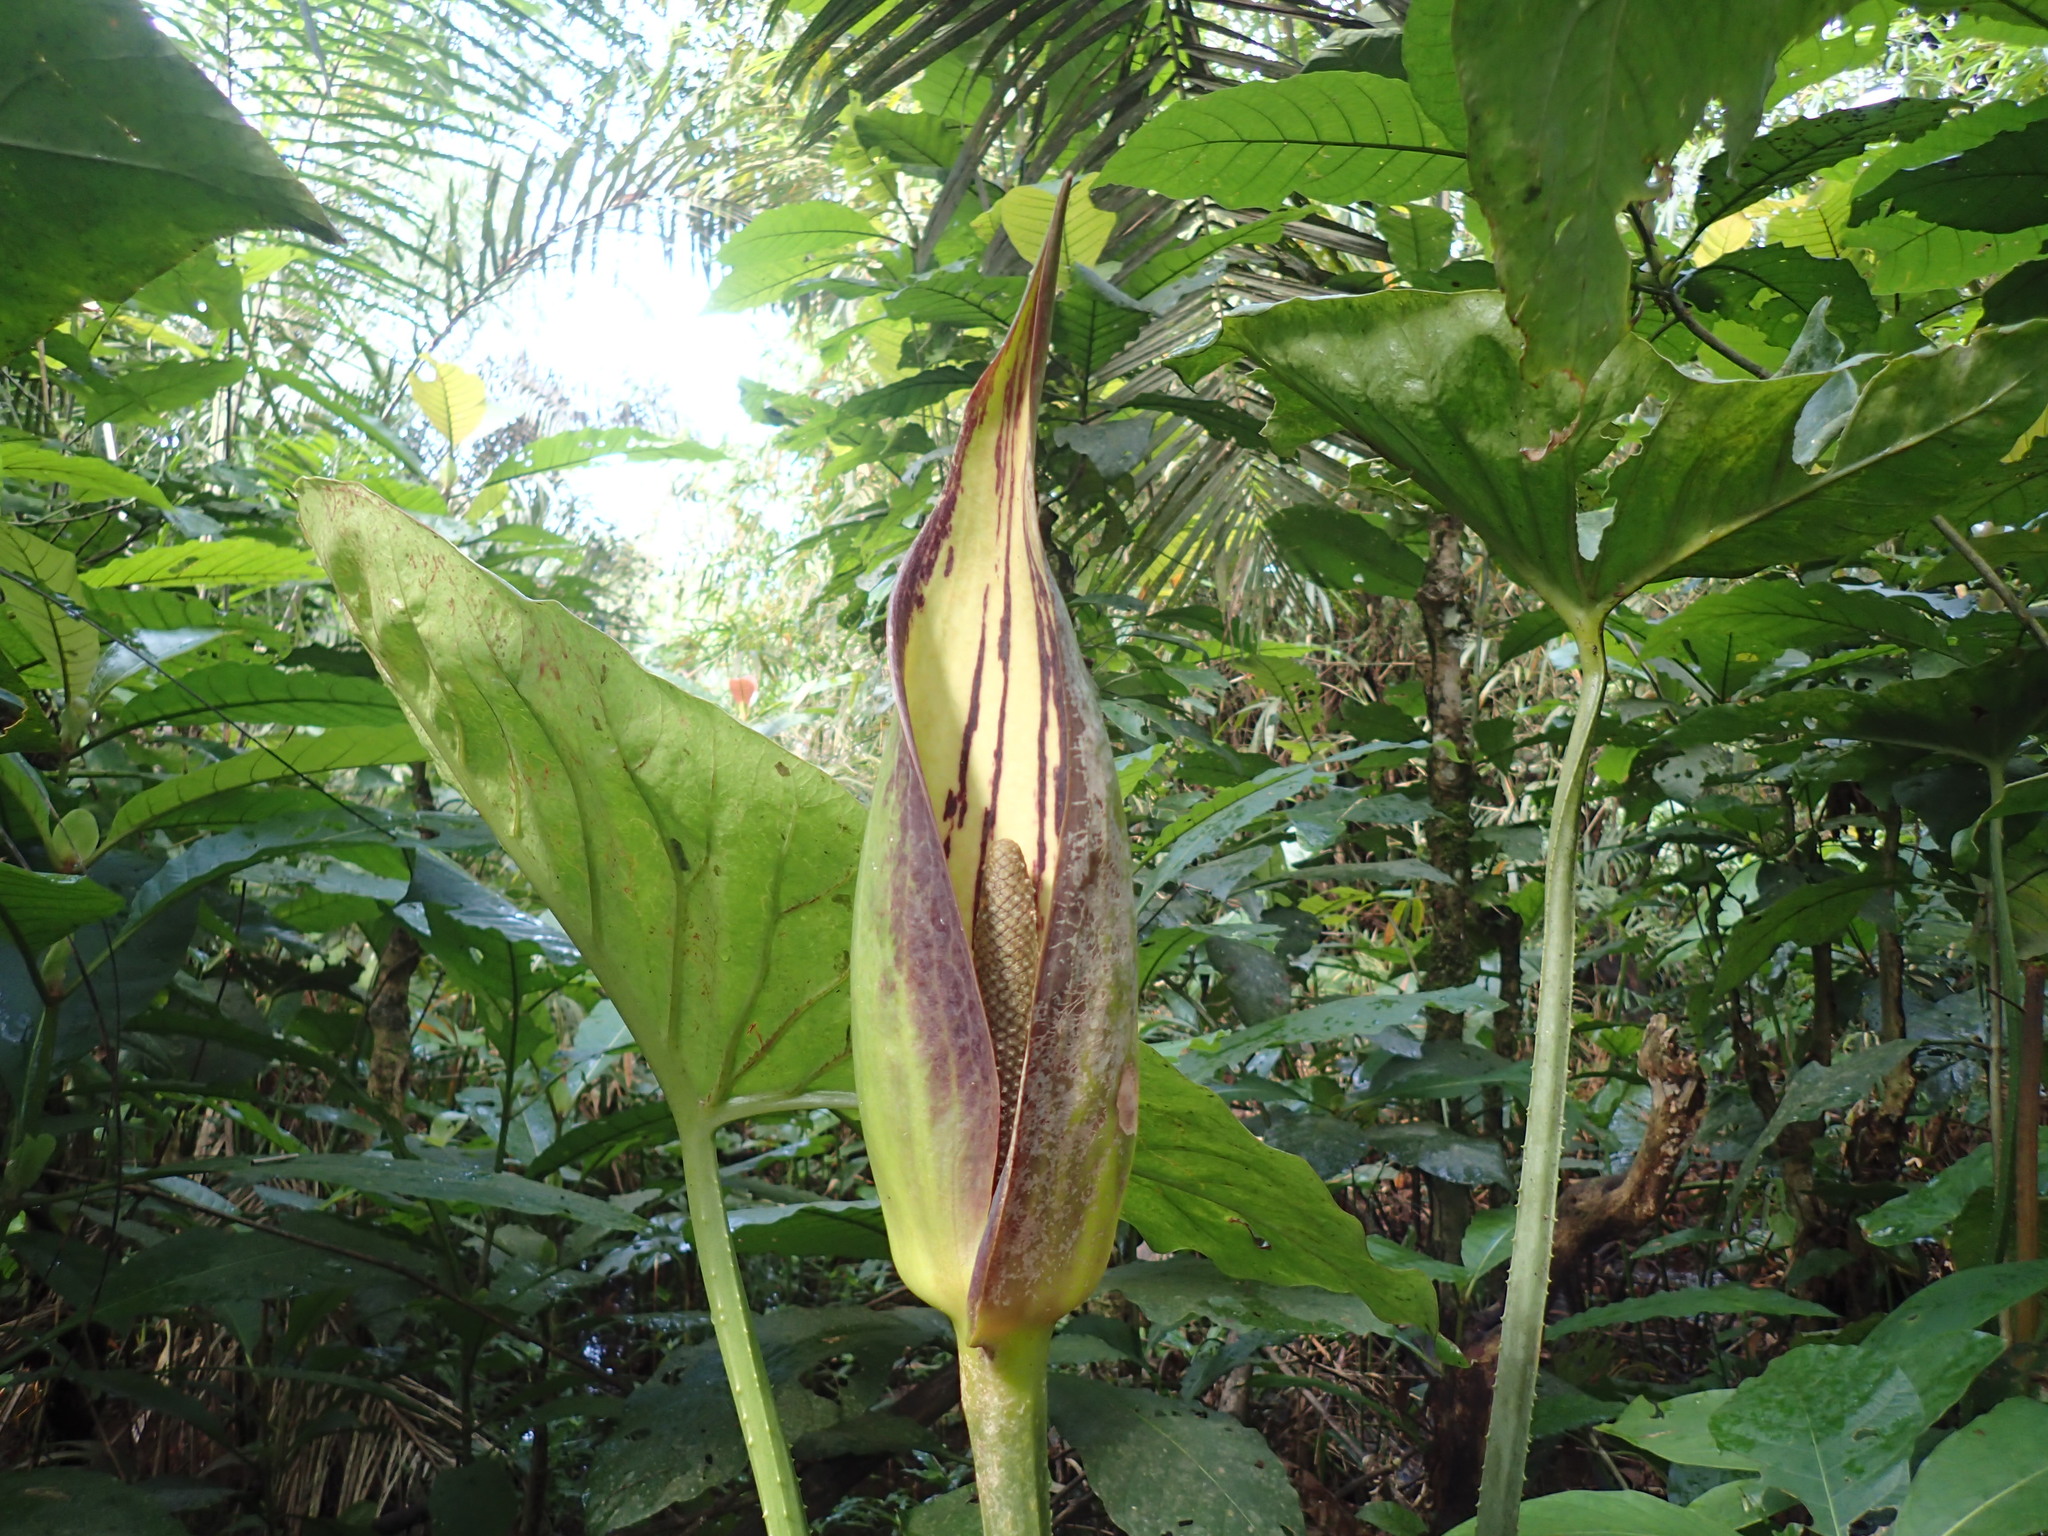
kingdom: Plantae
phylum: Tracheophyta
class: Liliopsida
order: Alismatales
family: Araceae
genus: Lasimorpha
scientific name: Lasimorpha senegalensis
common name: Swamp arum
